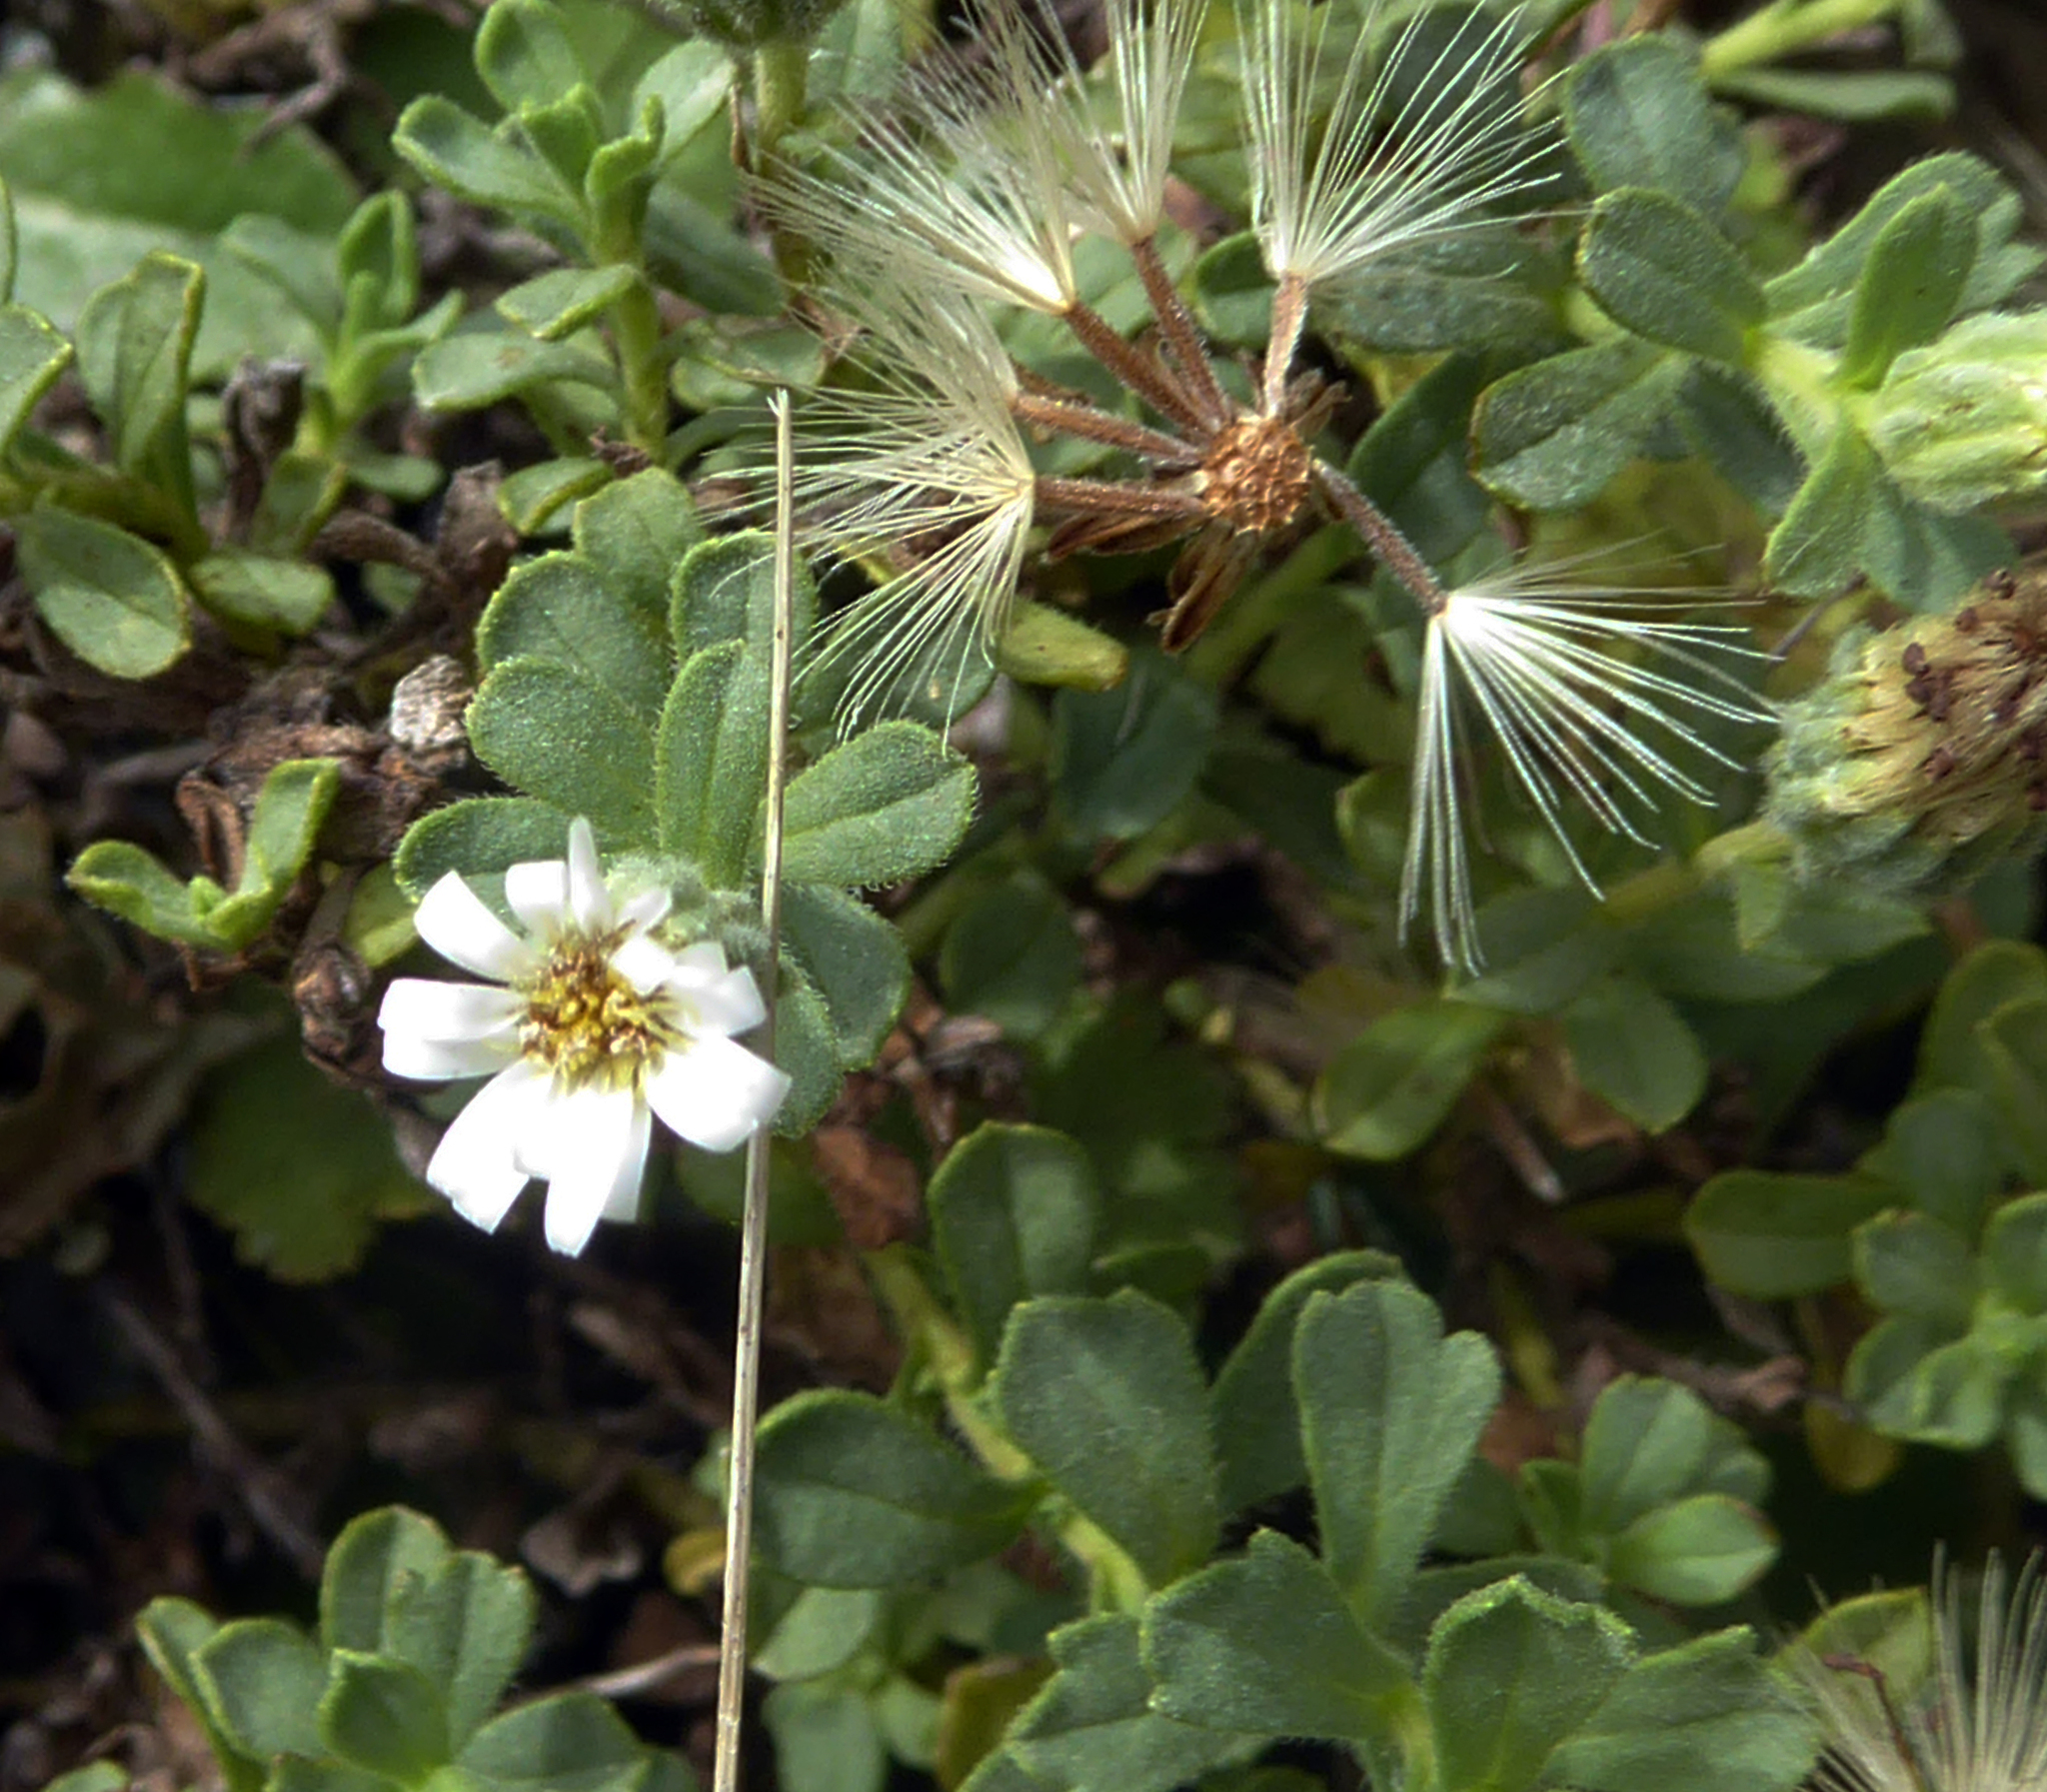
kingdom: Plantae
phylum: Tracheophyta
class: Magnoliopsida
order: Asterales
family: Asteraceae
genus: Vittadinia
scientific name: Vittadinia australis
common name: White fuzzweed
